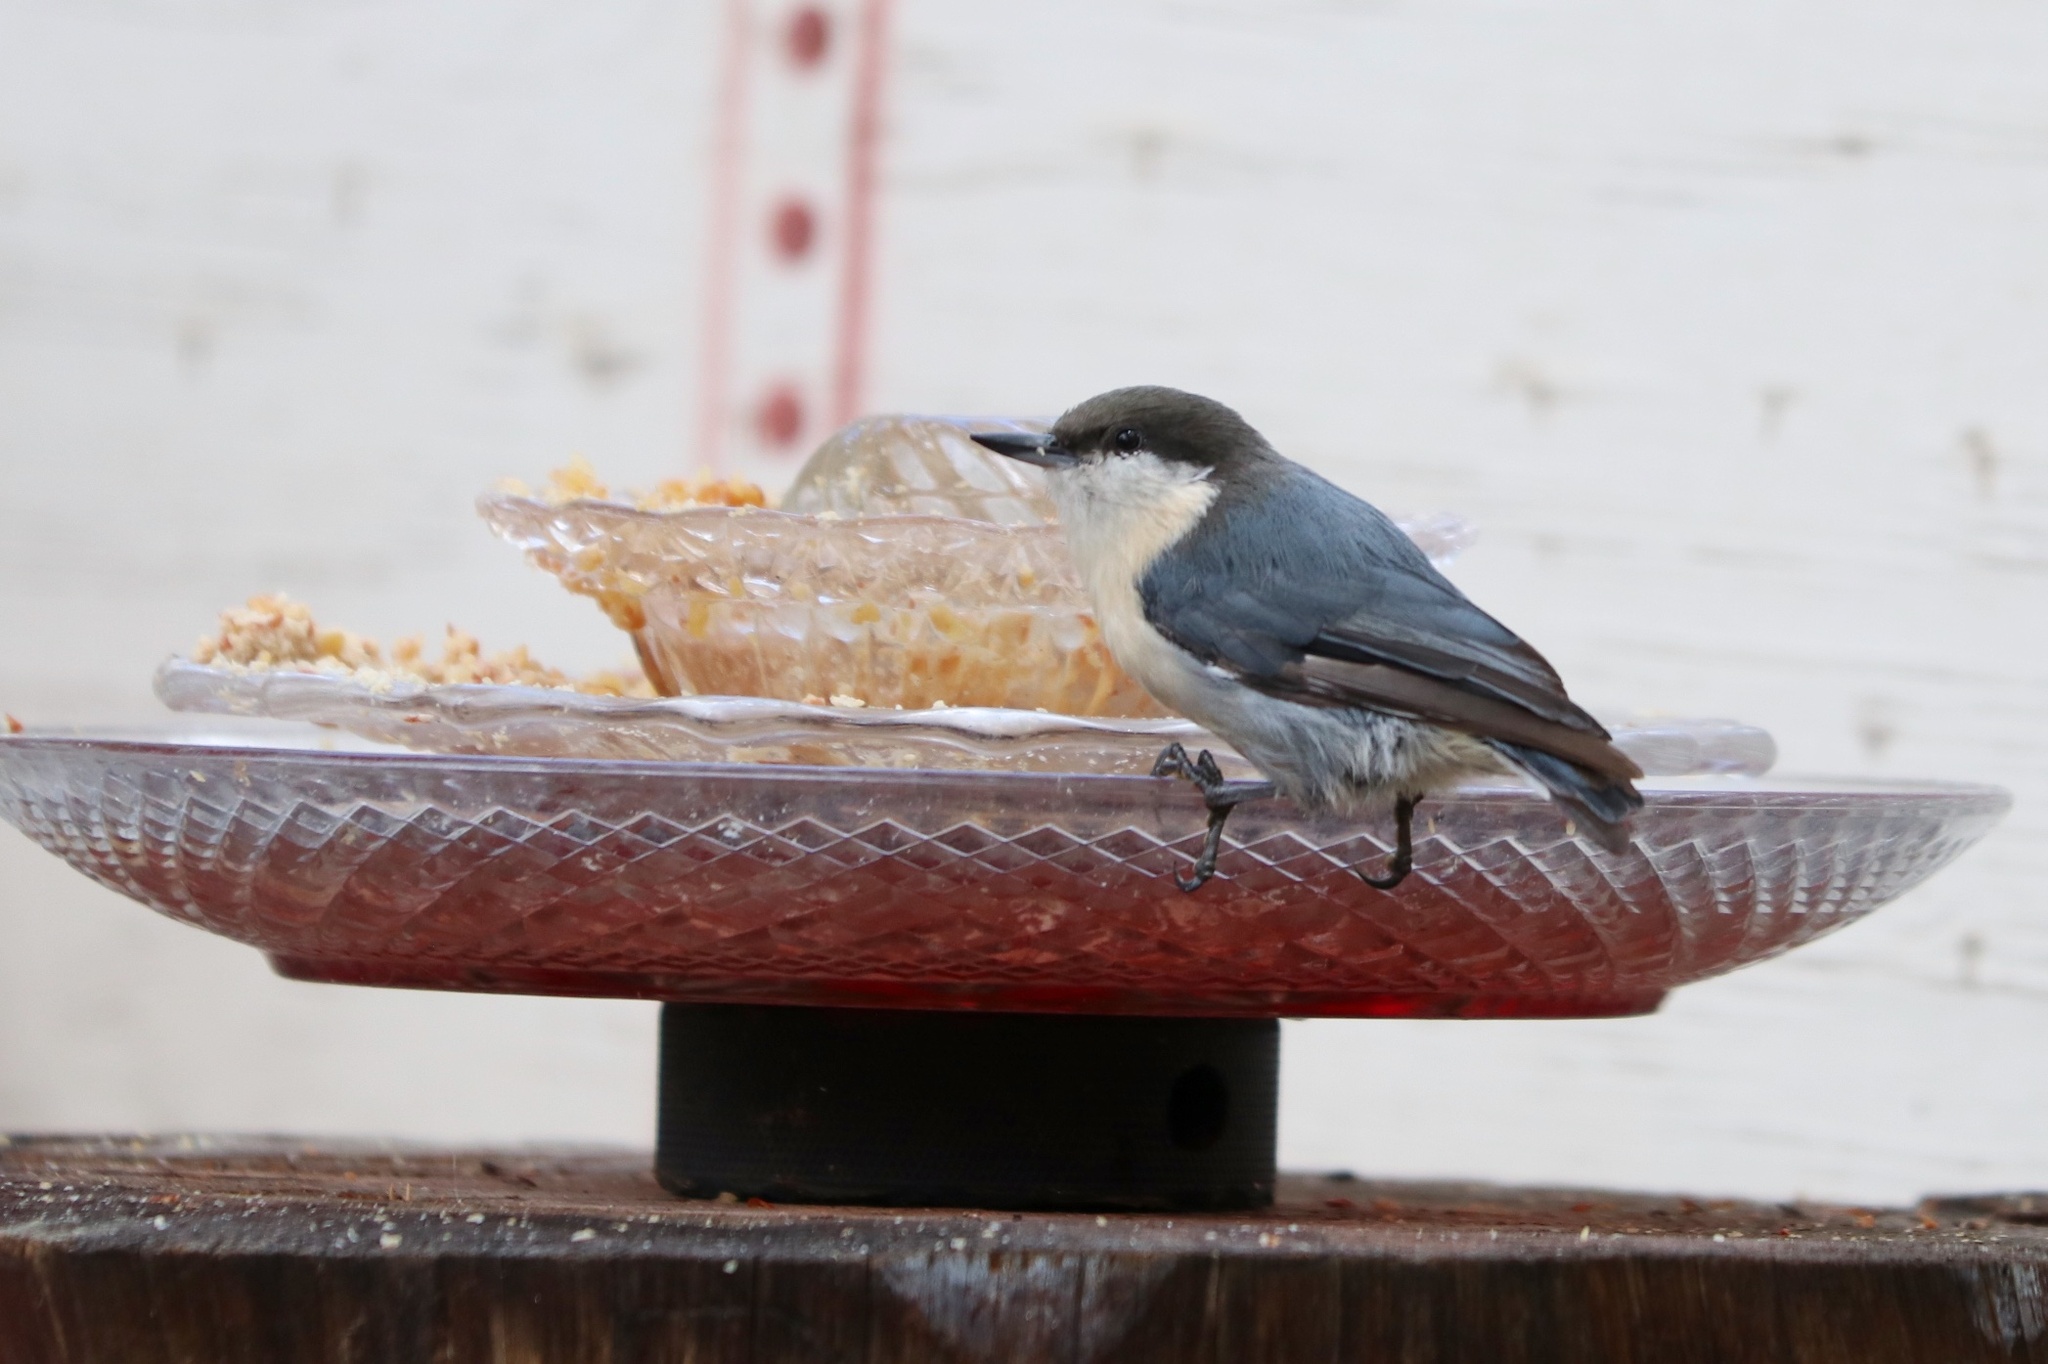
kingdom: Animalia
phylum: Chordata
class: Aves
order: Passeriformes
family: Sittidae
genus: Sitta
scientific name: Sitta pygmaea
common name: Pygmy nuthatch
